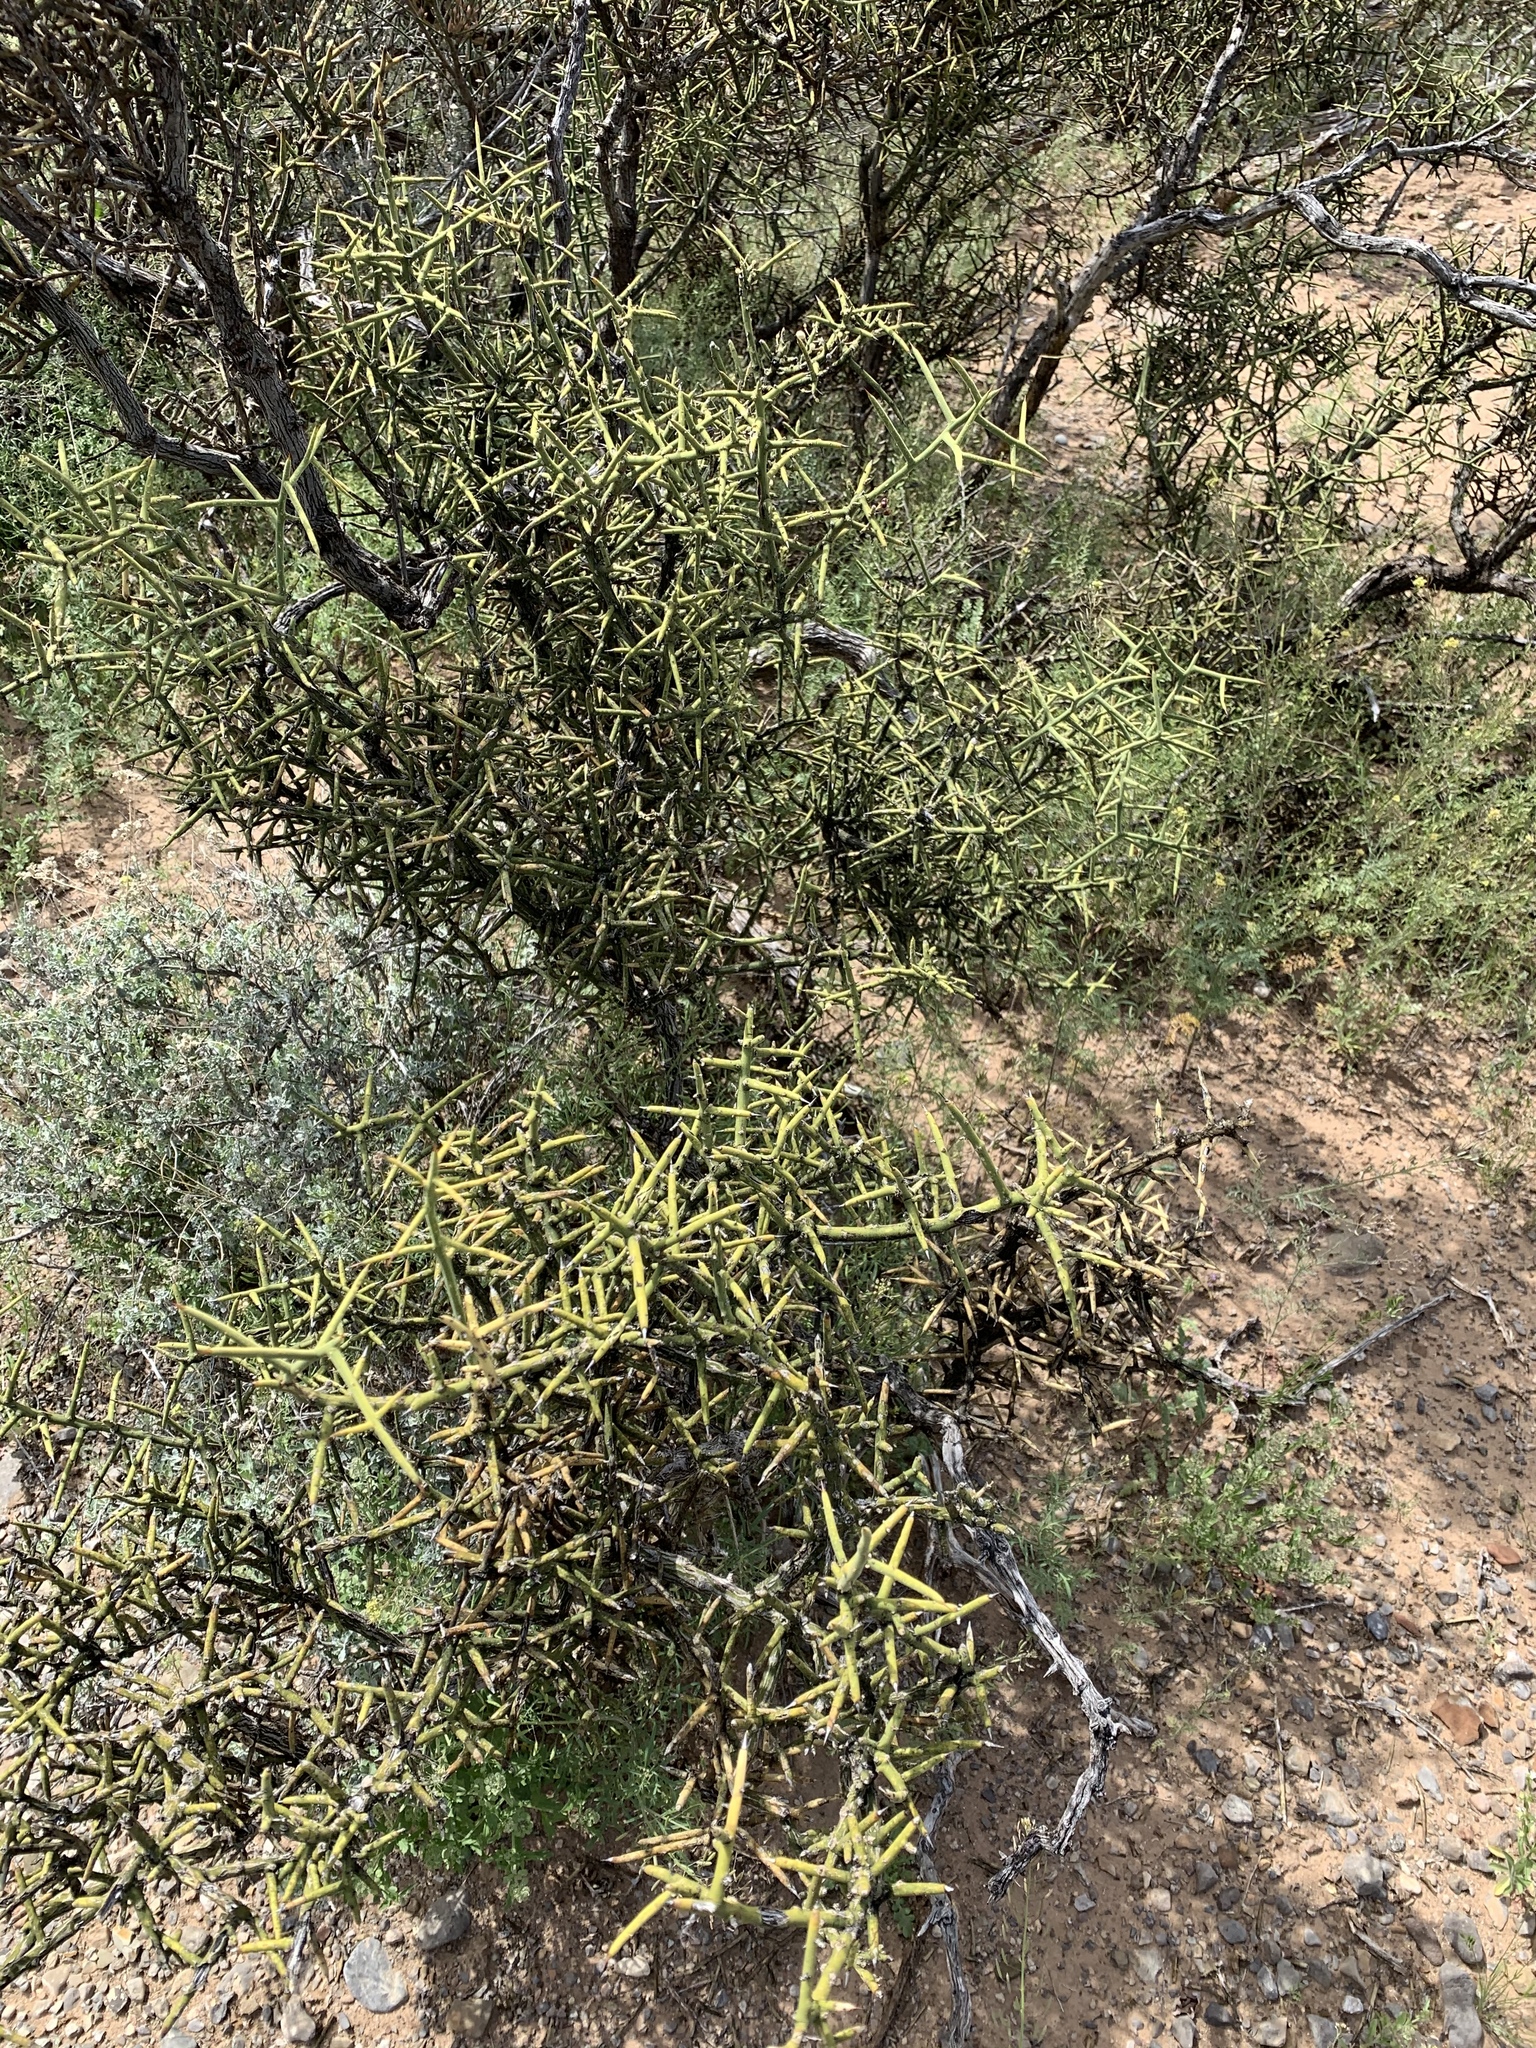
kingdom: Plantae
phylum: Tracheophyta
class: Magnoliopsida
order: Brassicales
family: Koeberliniaceae
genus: Koeberlinia
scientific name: Koeberlinia spinosa
